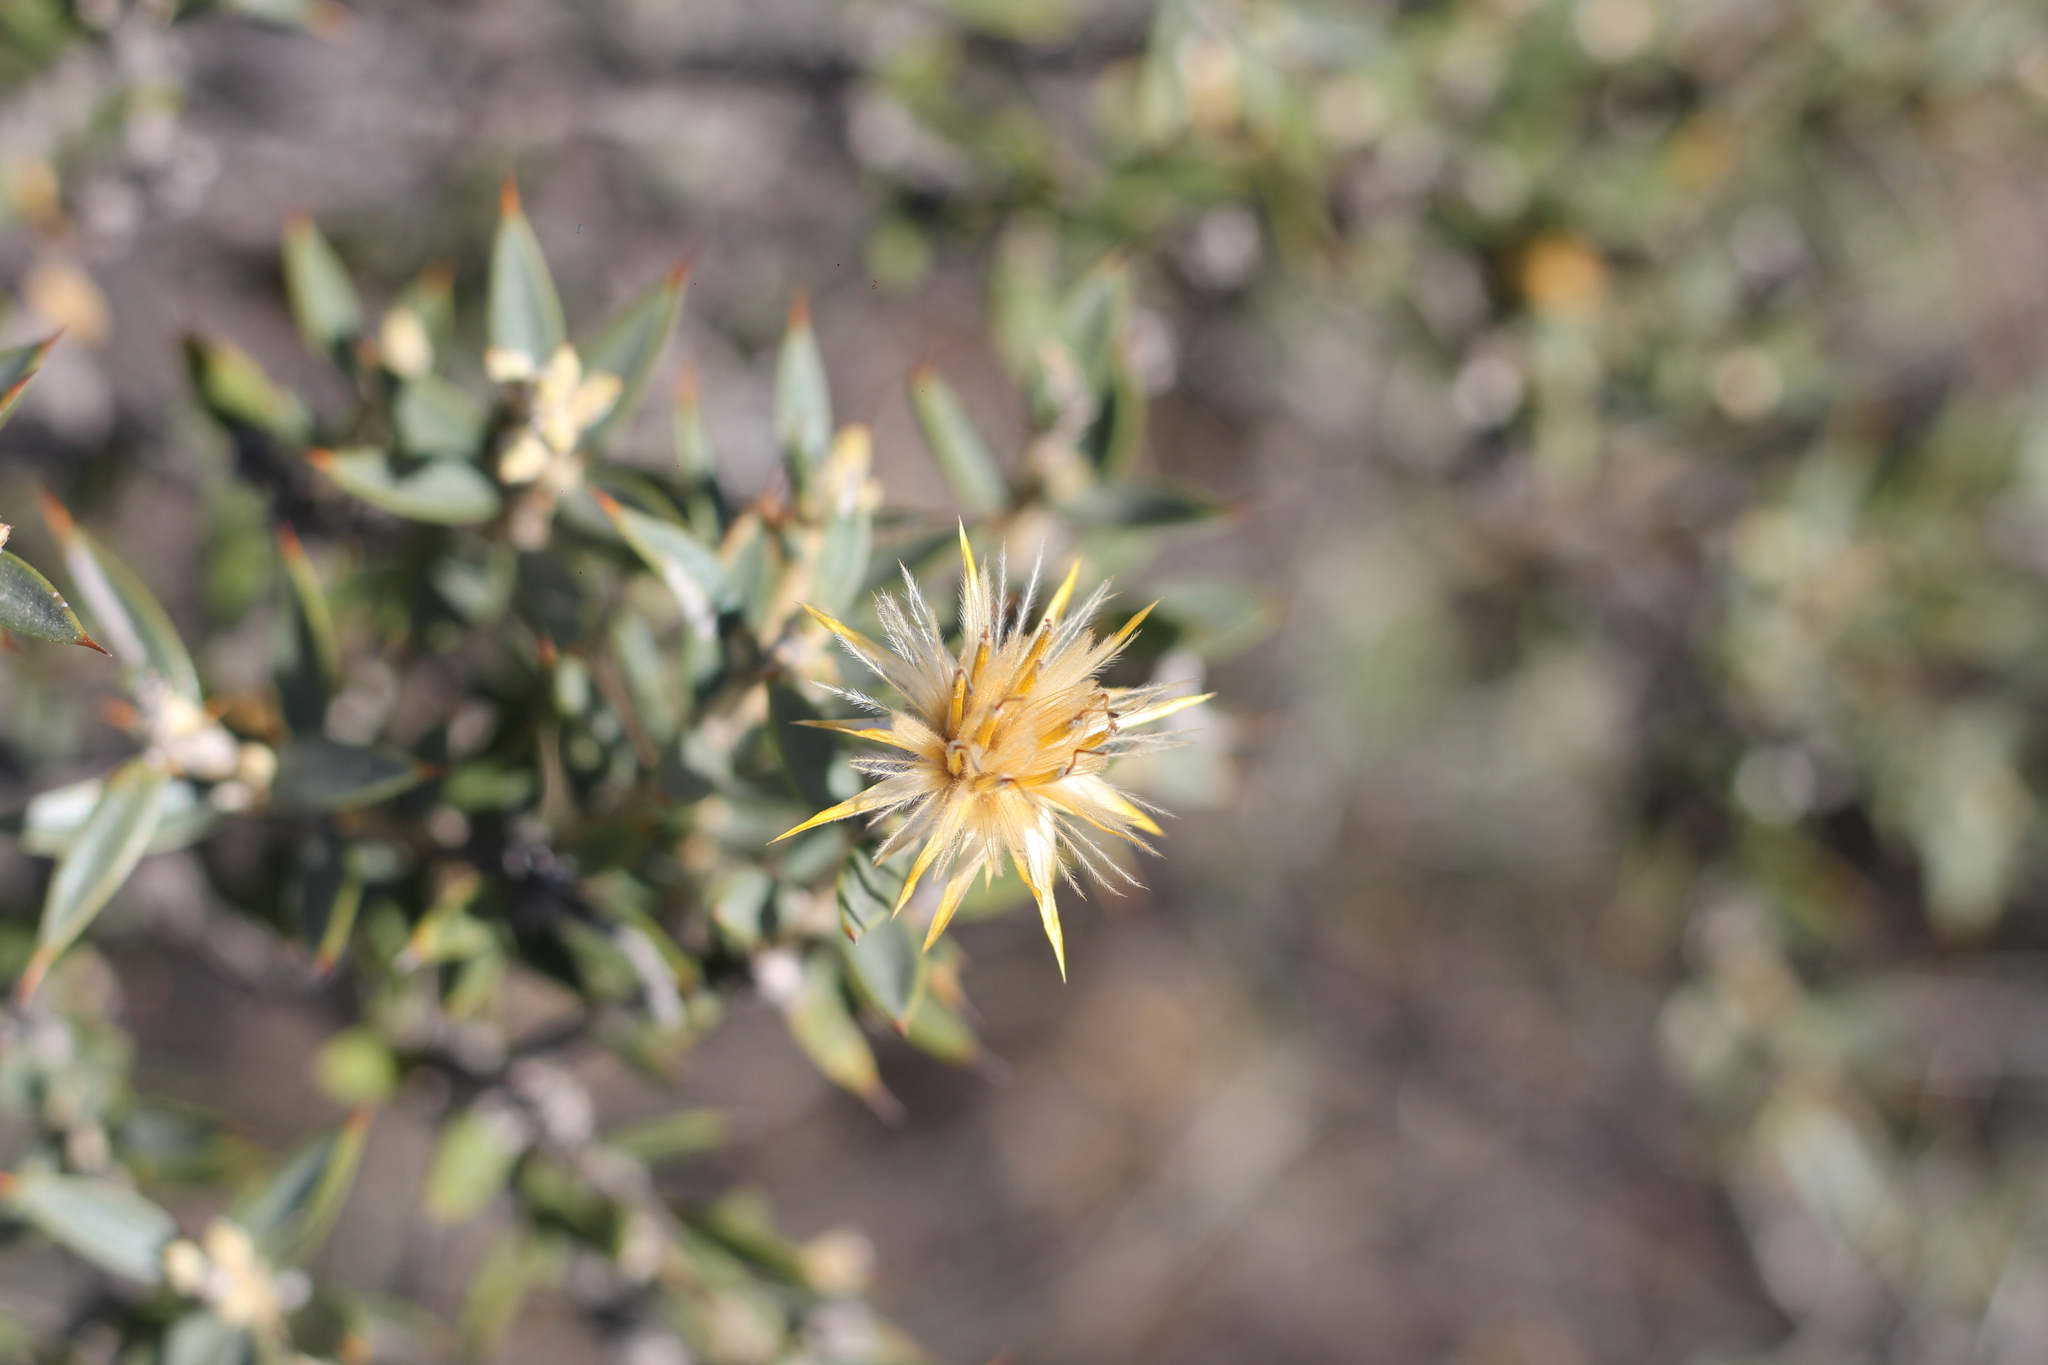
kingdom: Plantae
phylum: Tracheophyta
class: Magnoliopsida
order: Asterales
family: Asteraceae
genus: Chuquiraga
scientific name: Chuquiraga avellanedae
